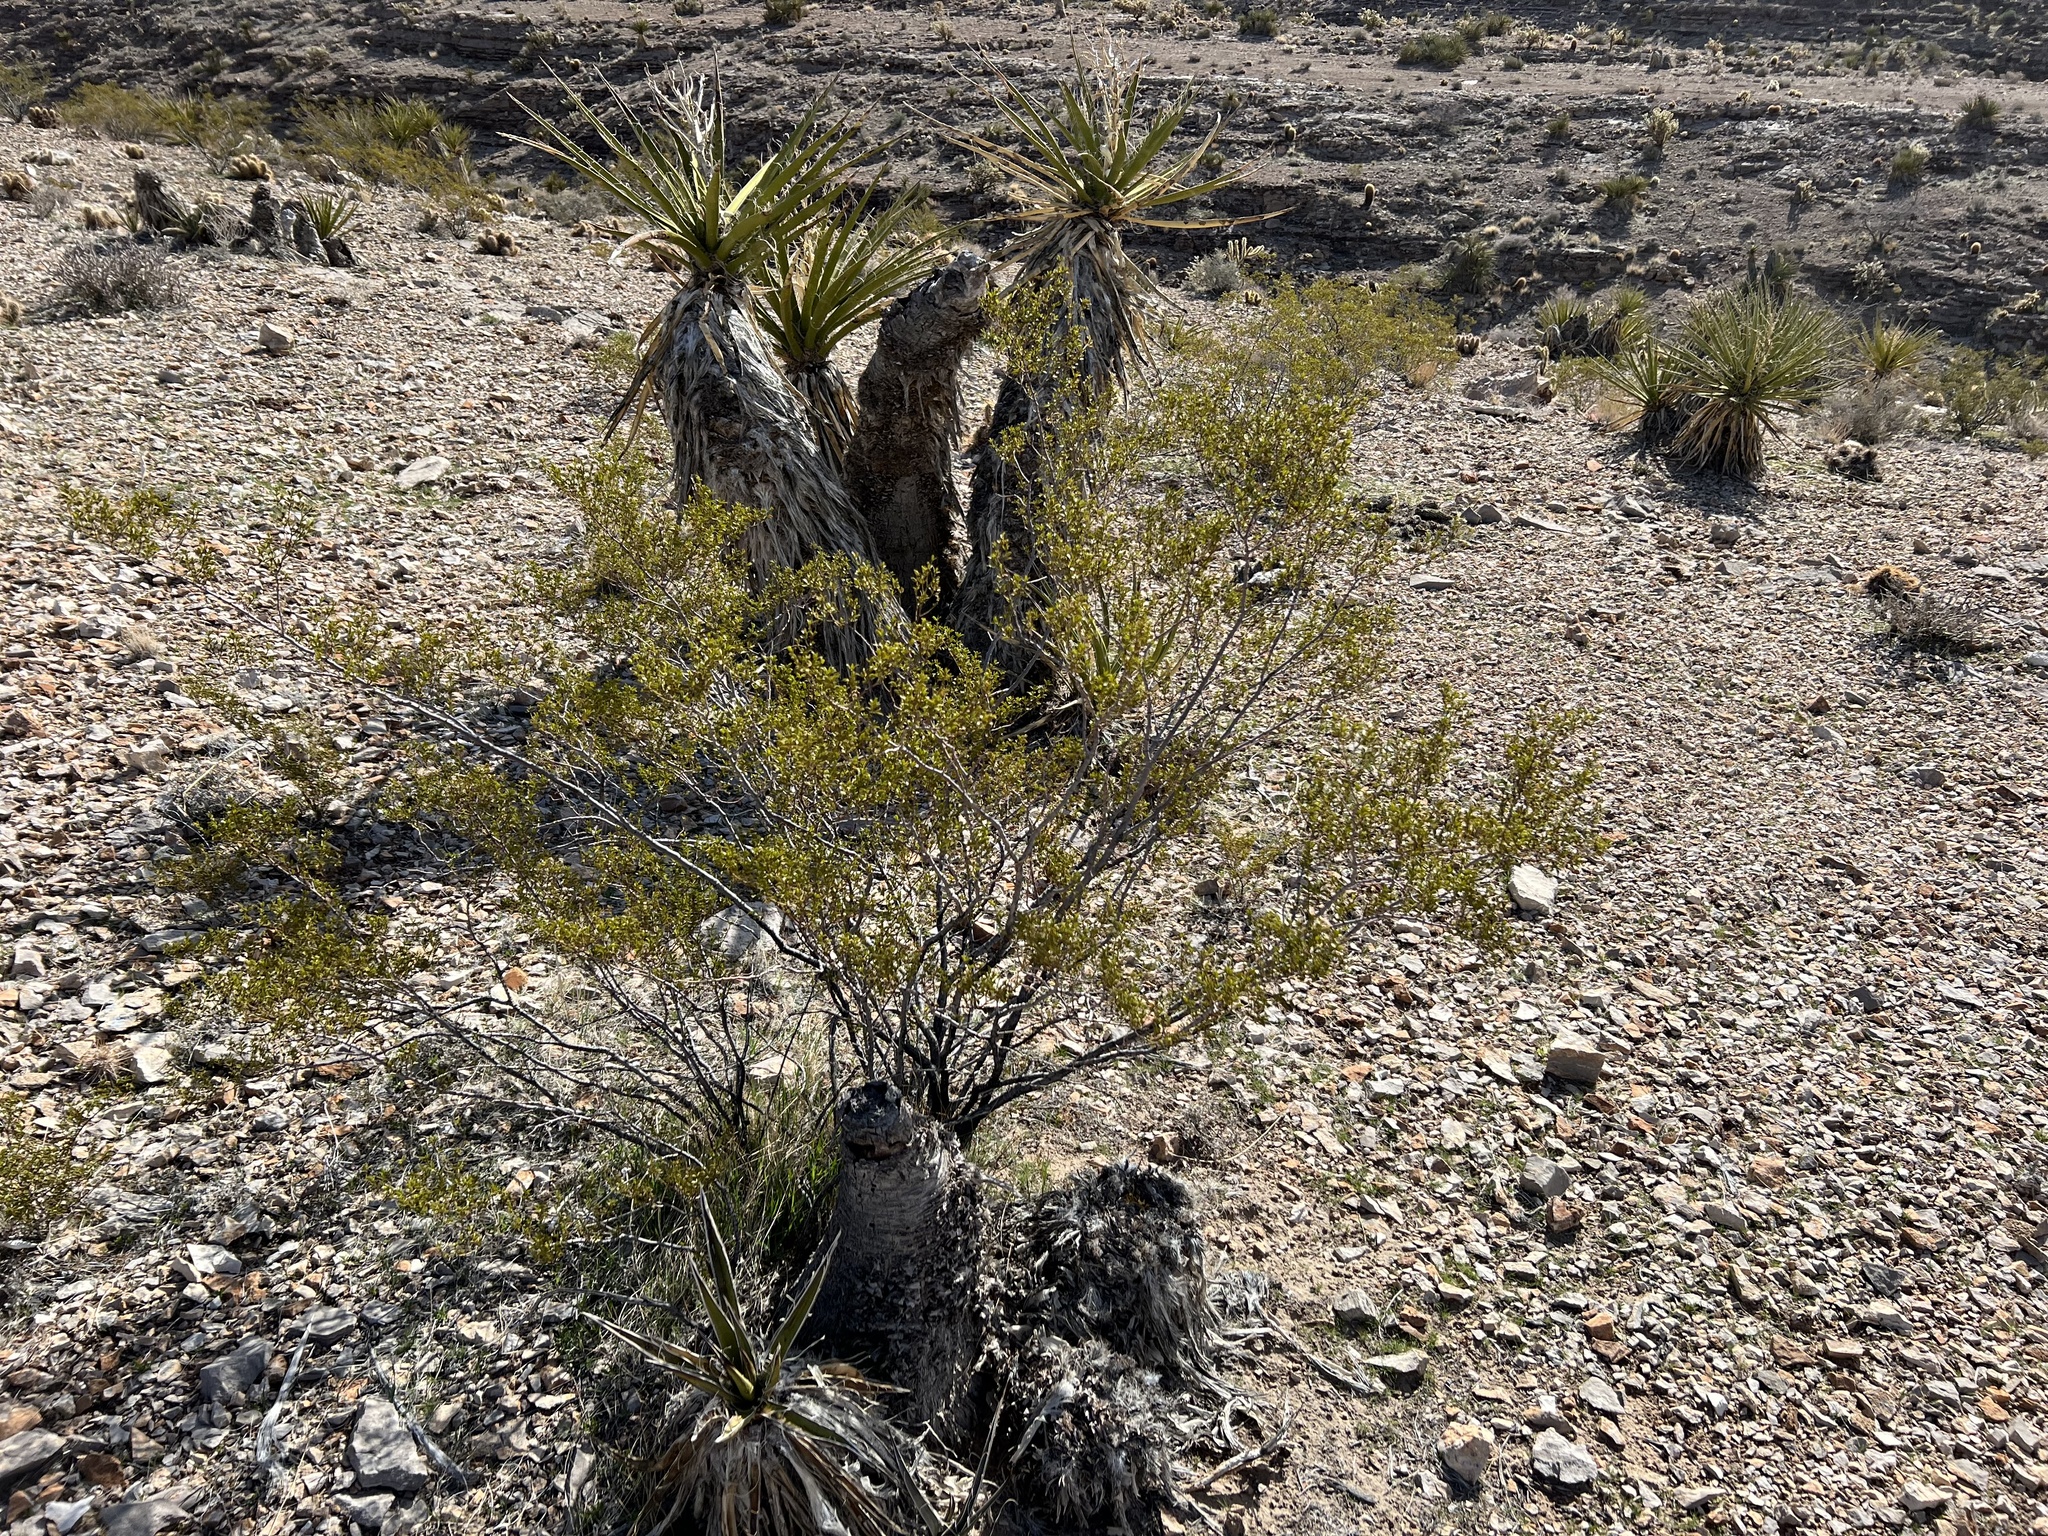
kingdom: Plantae
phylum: Tracheophyta
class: Magnoliopsida
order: Zygophyllales
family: Zygophyllaceae
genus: Larrea
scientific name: Larrea tridentata
